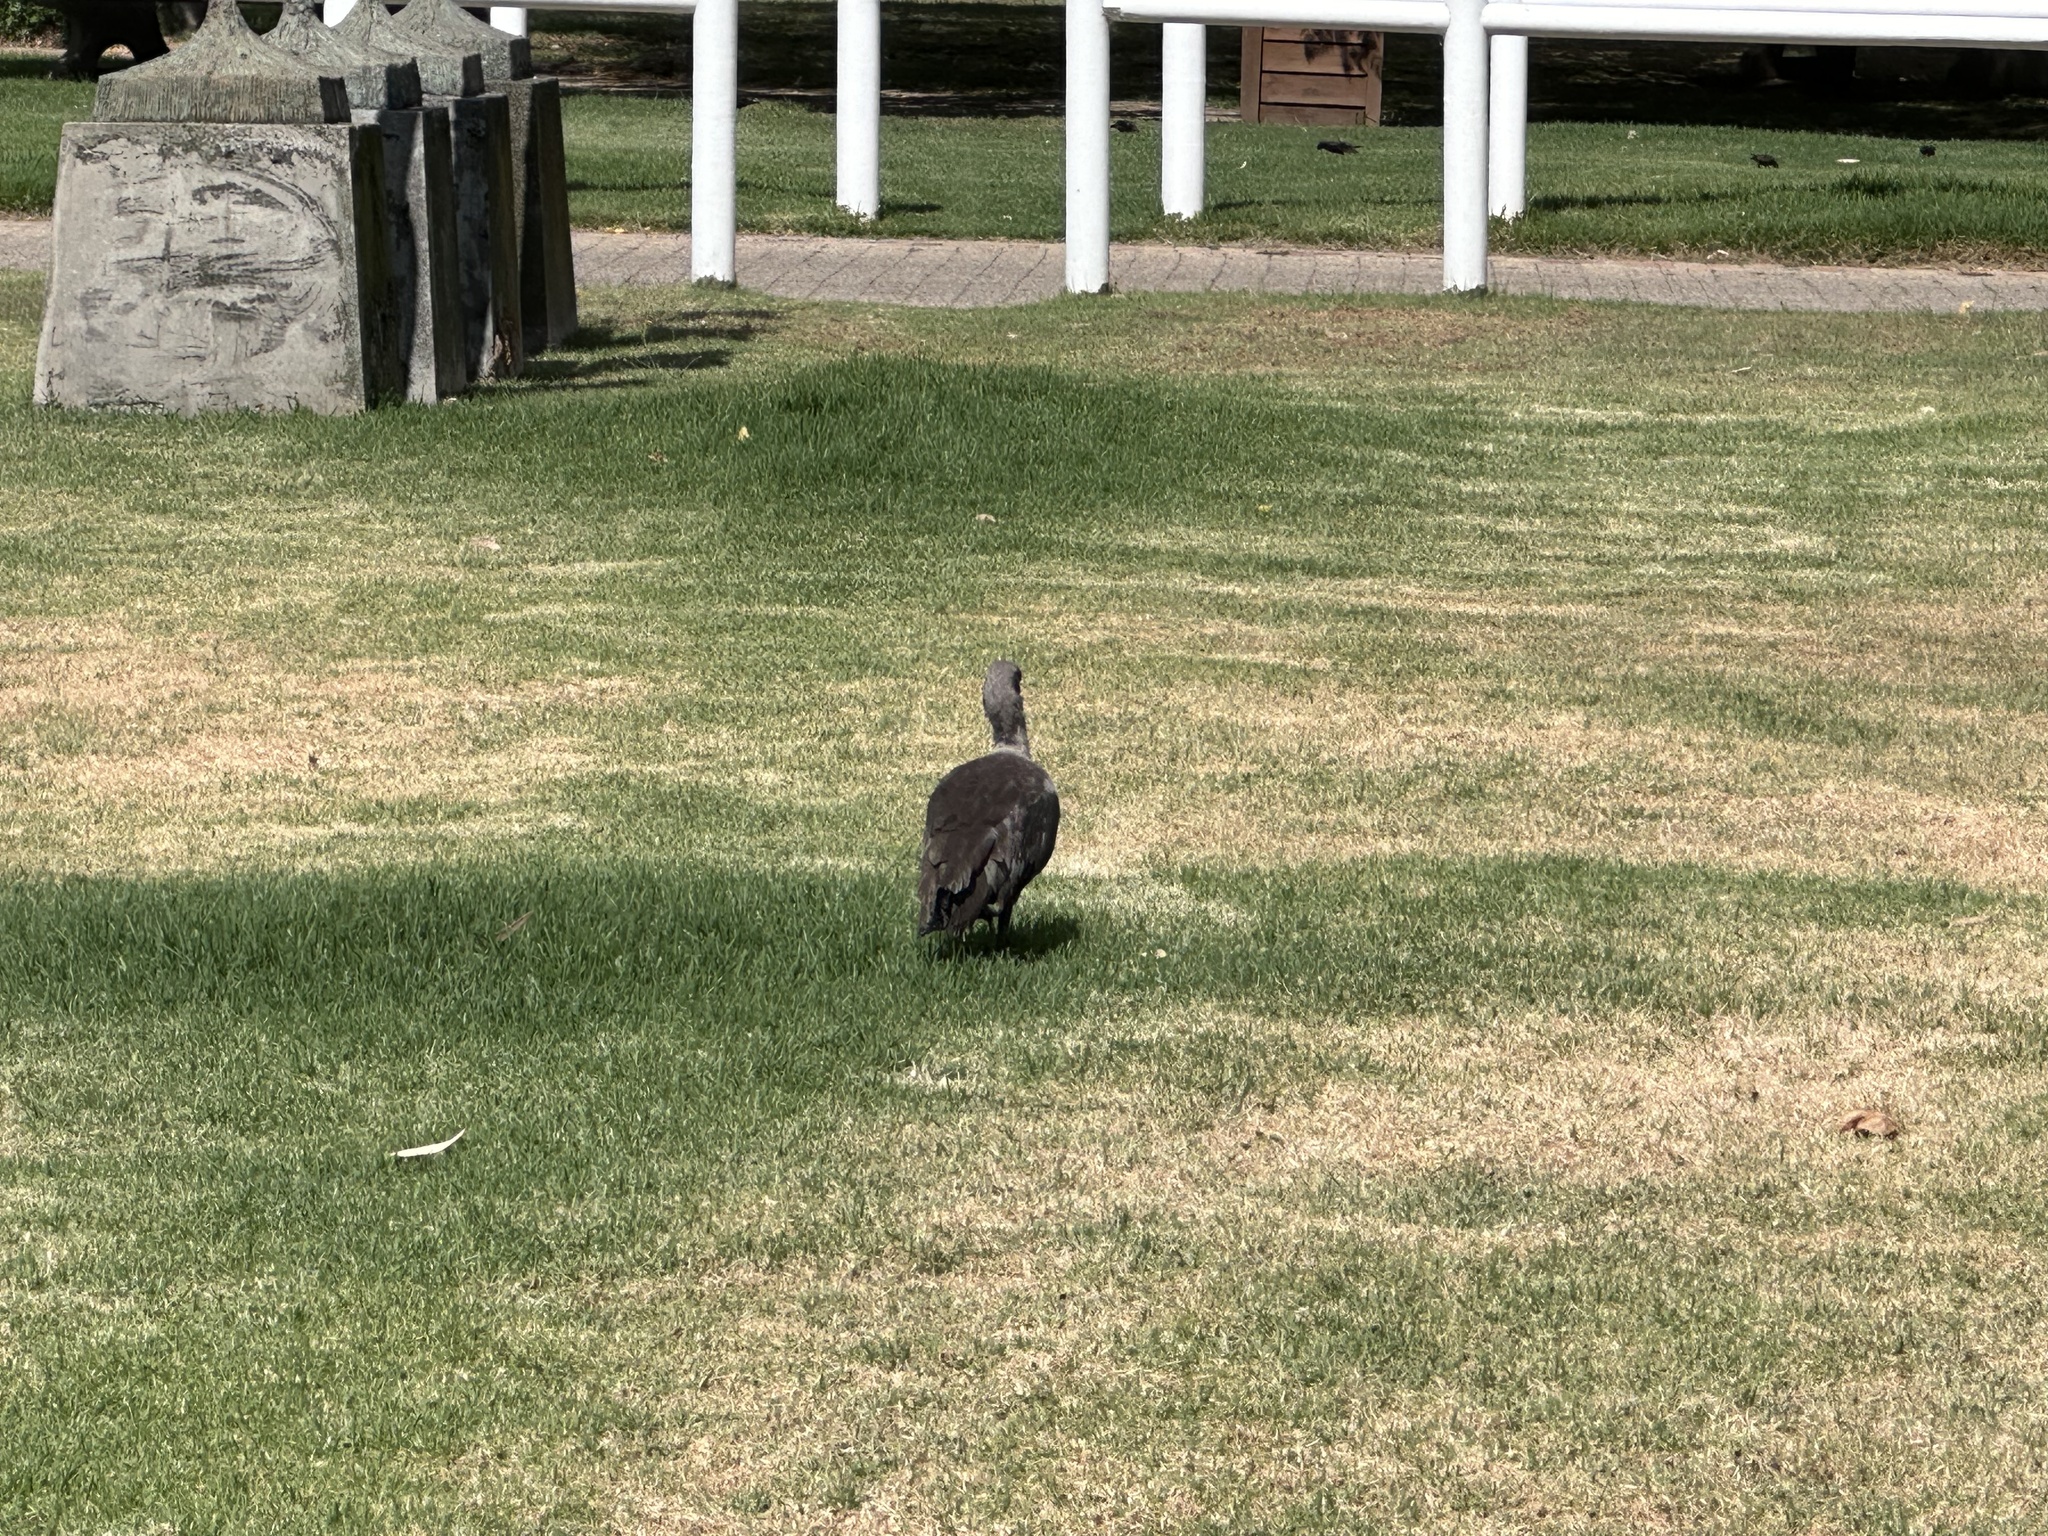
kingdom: Animalia
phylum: Chordata
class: Aves
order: Pelecaniformes
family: Threskiornithidae
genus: Bostrychia
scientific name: Bostrychia hagedash
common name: Hadada ibis
